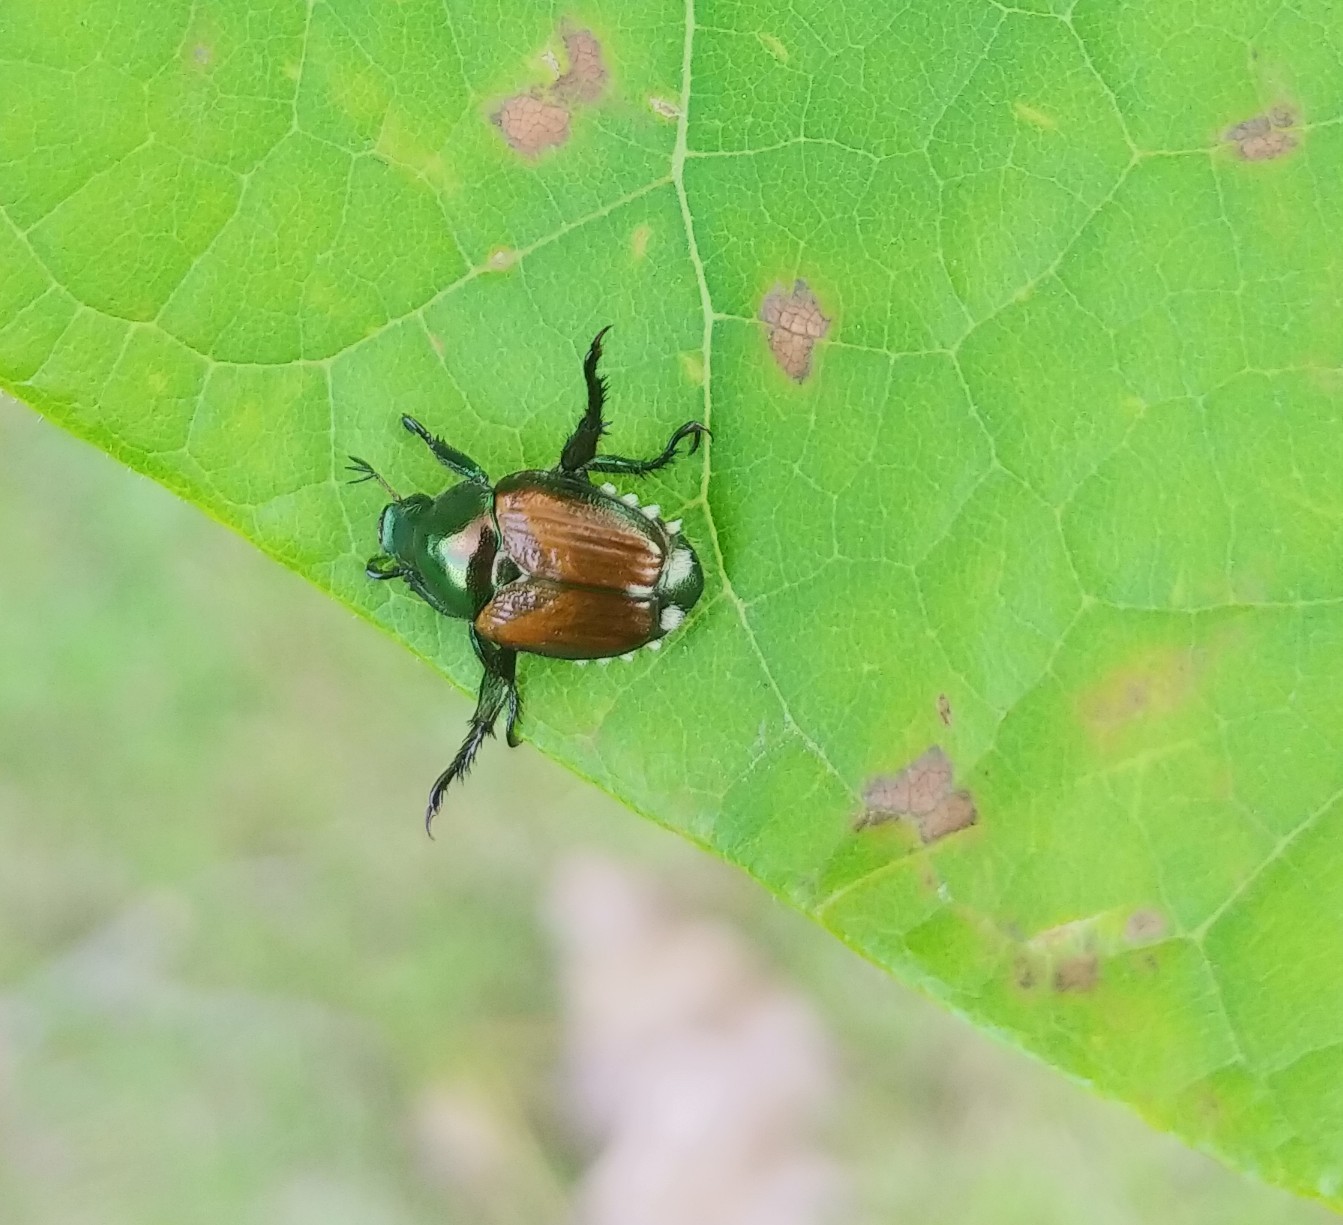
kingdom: Animalia
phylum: Arthropoda
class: Insecta
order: Coleoptera
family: Scarabaeidae
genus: Popillia
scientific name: Popillia japonica
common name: Japanese beetle
